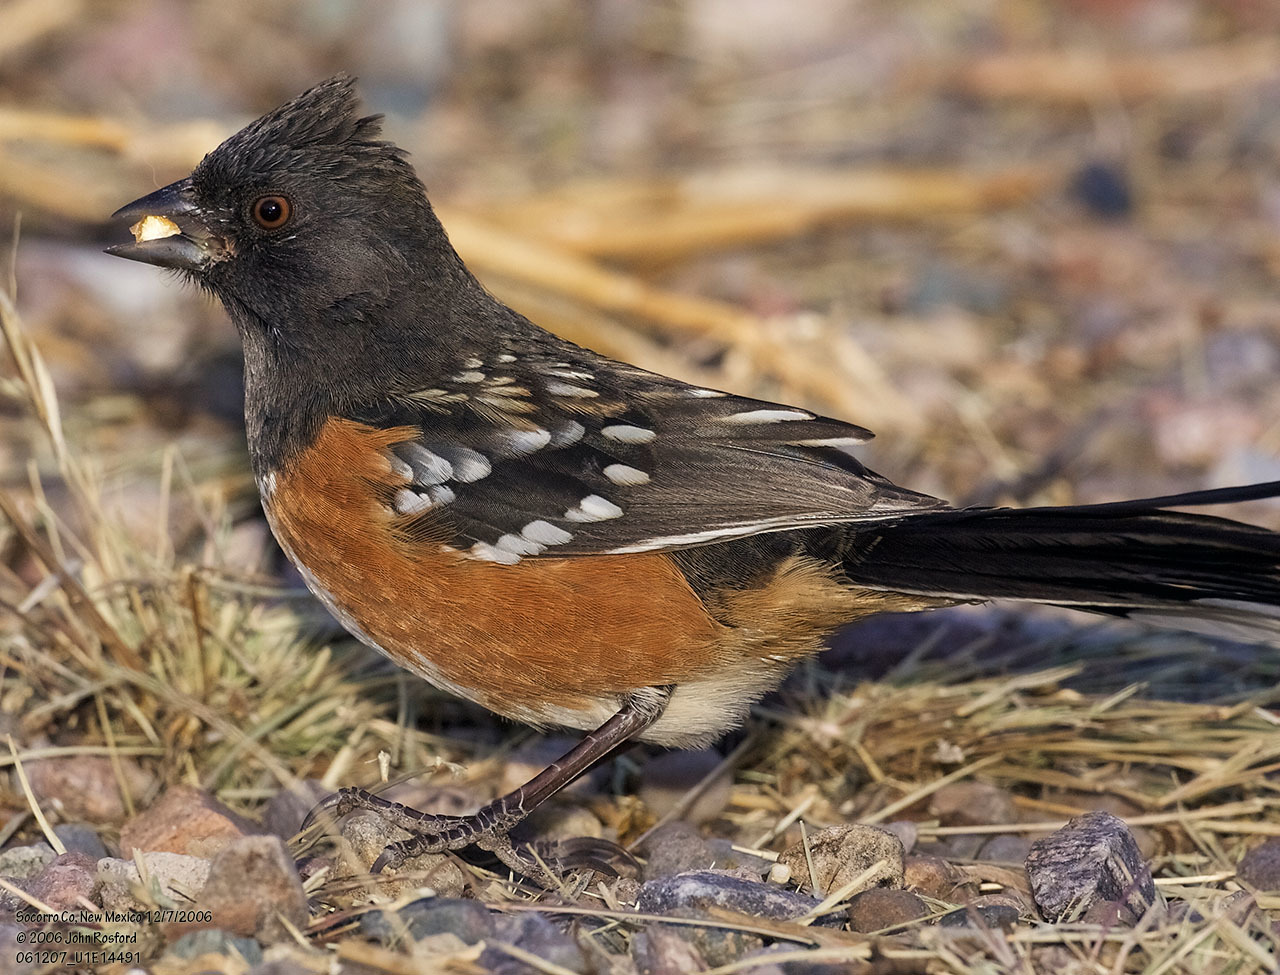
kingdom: Animalia
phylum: Chordata
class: Aves
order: Passeriformes
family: Passerellidae
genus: Pipilo
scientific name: Pipilo maculatus
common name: Spotted towhee
